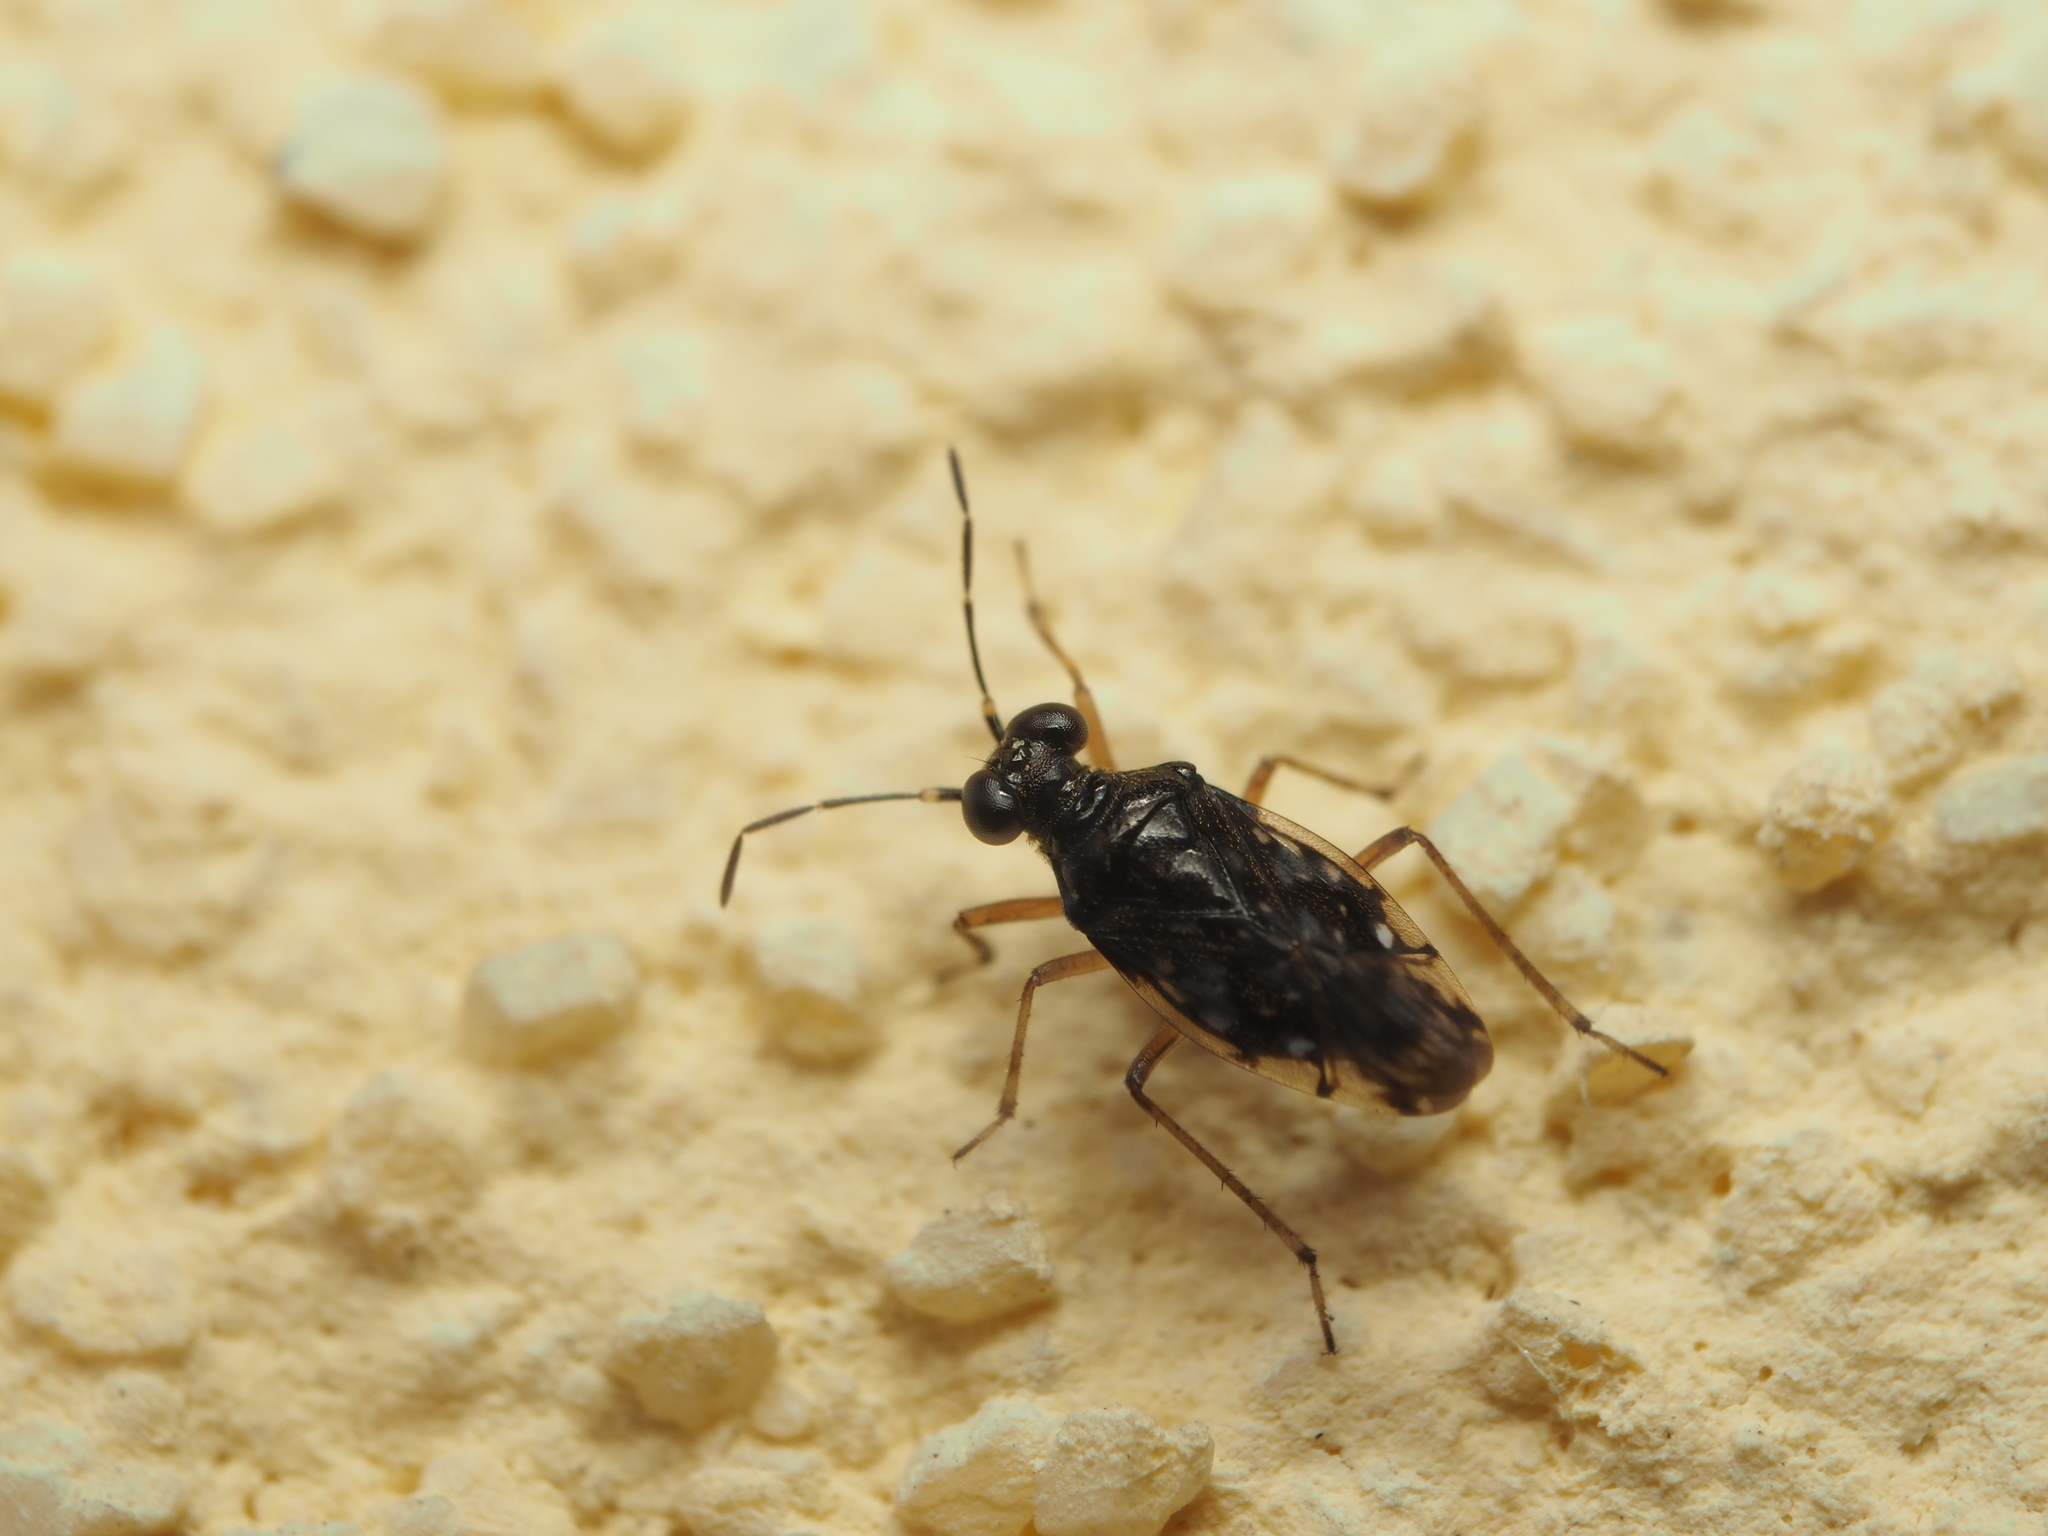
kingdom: Animalia
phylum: Arthropoda
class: Insecta
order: Hemiptera
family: Saldidae
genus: Chartoscirta
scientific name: Chartoscirta cincta
